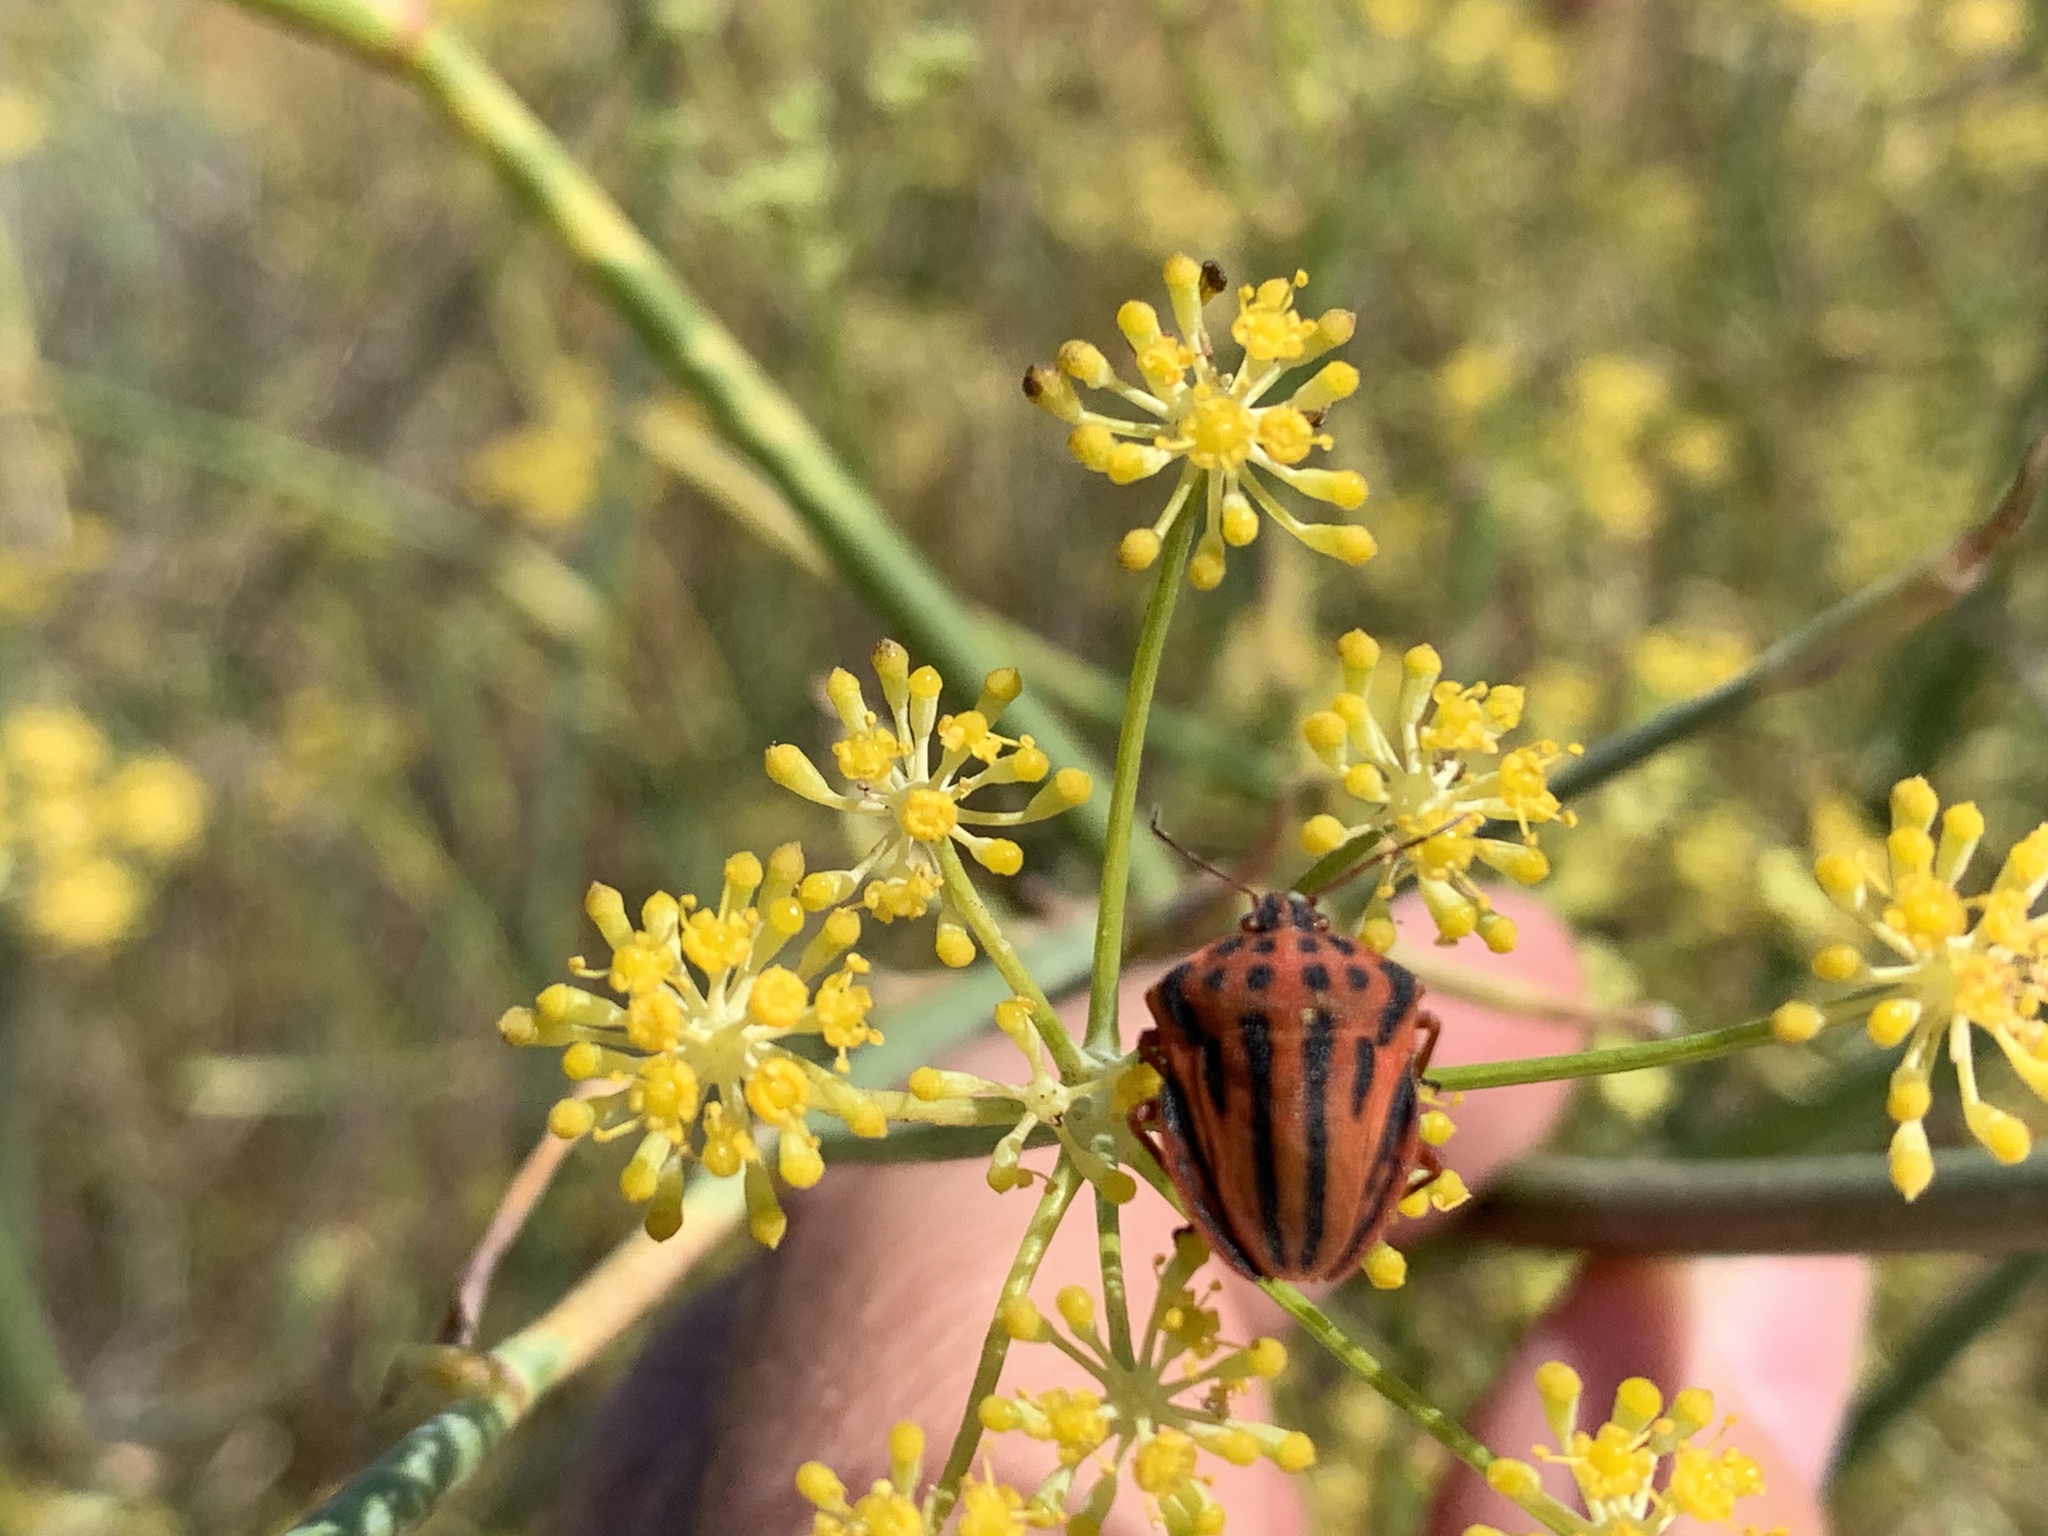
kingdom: Animalia
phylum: Arthropoda
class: Insecta
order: Hemiptera
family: Pentatomidae
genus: Graphosoma
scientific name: Graphosoma semipunctatum
